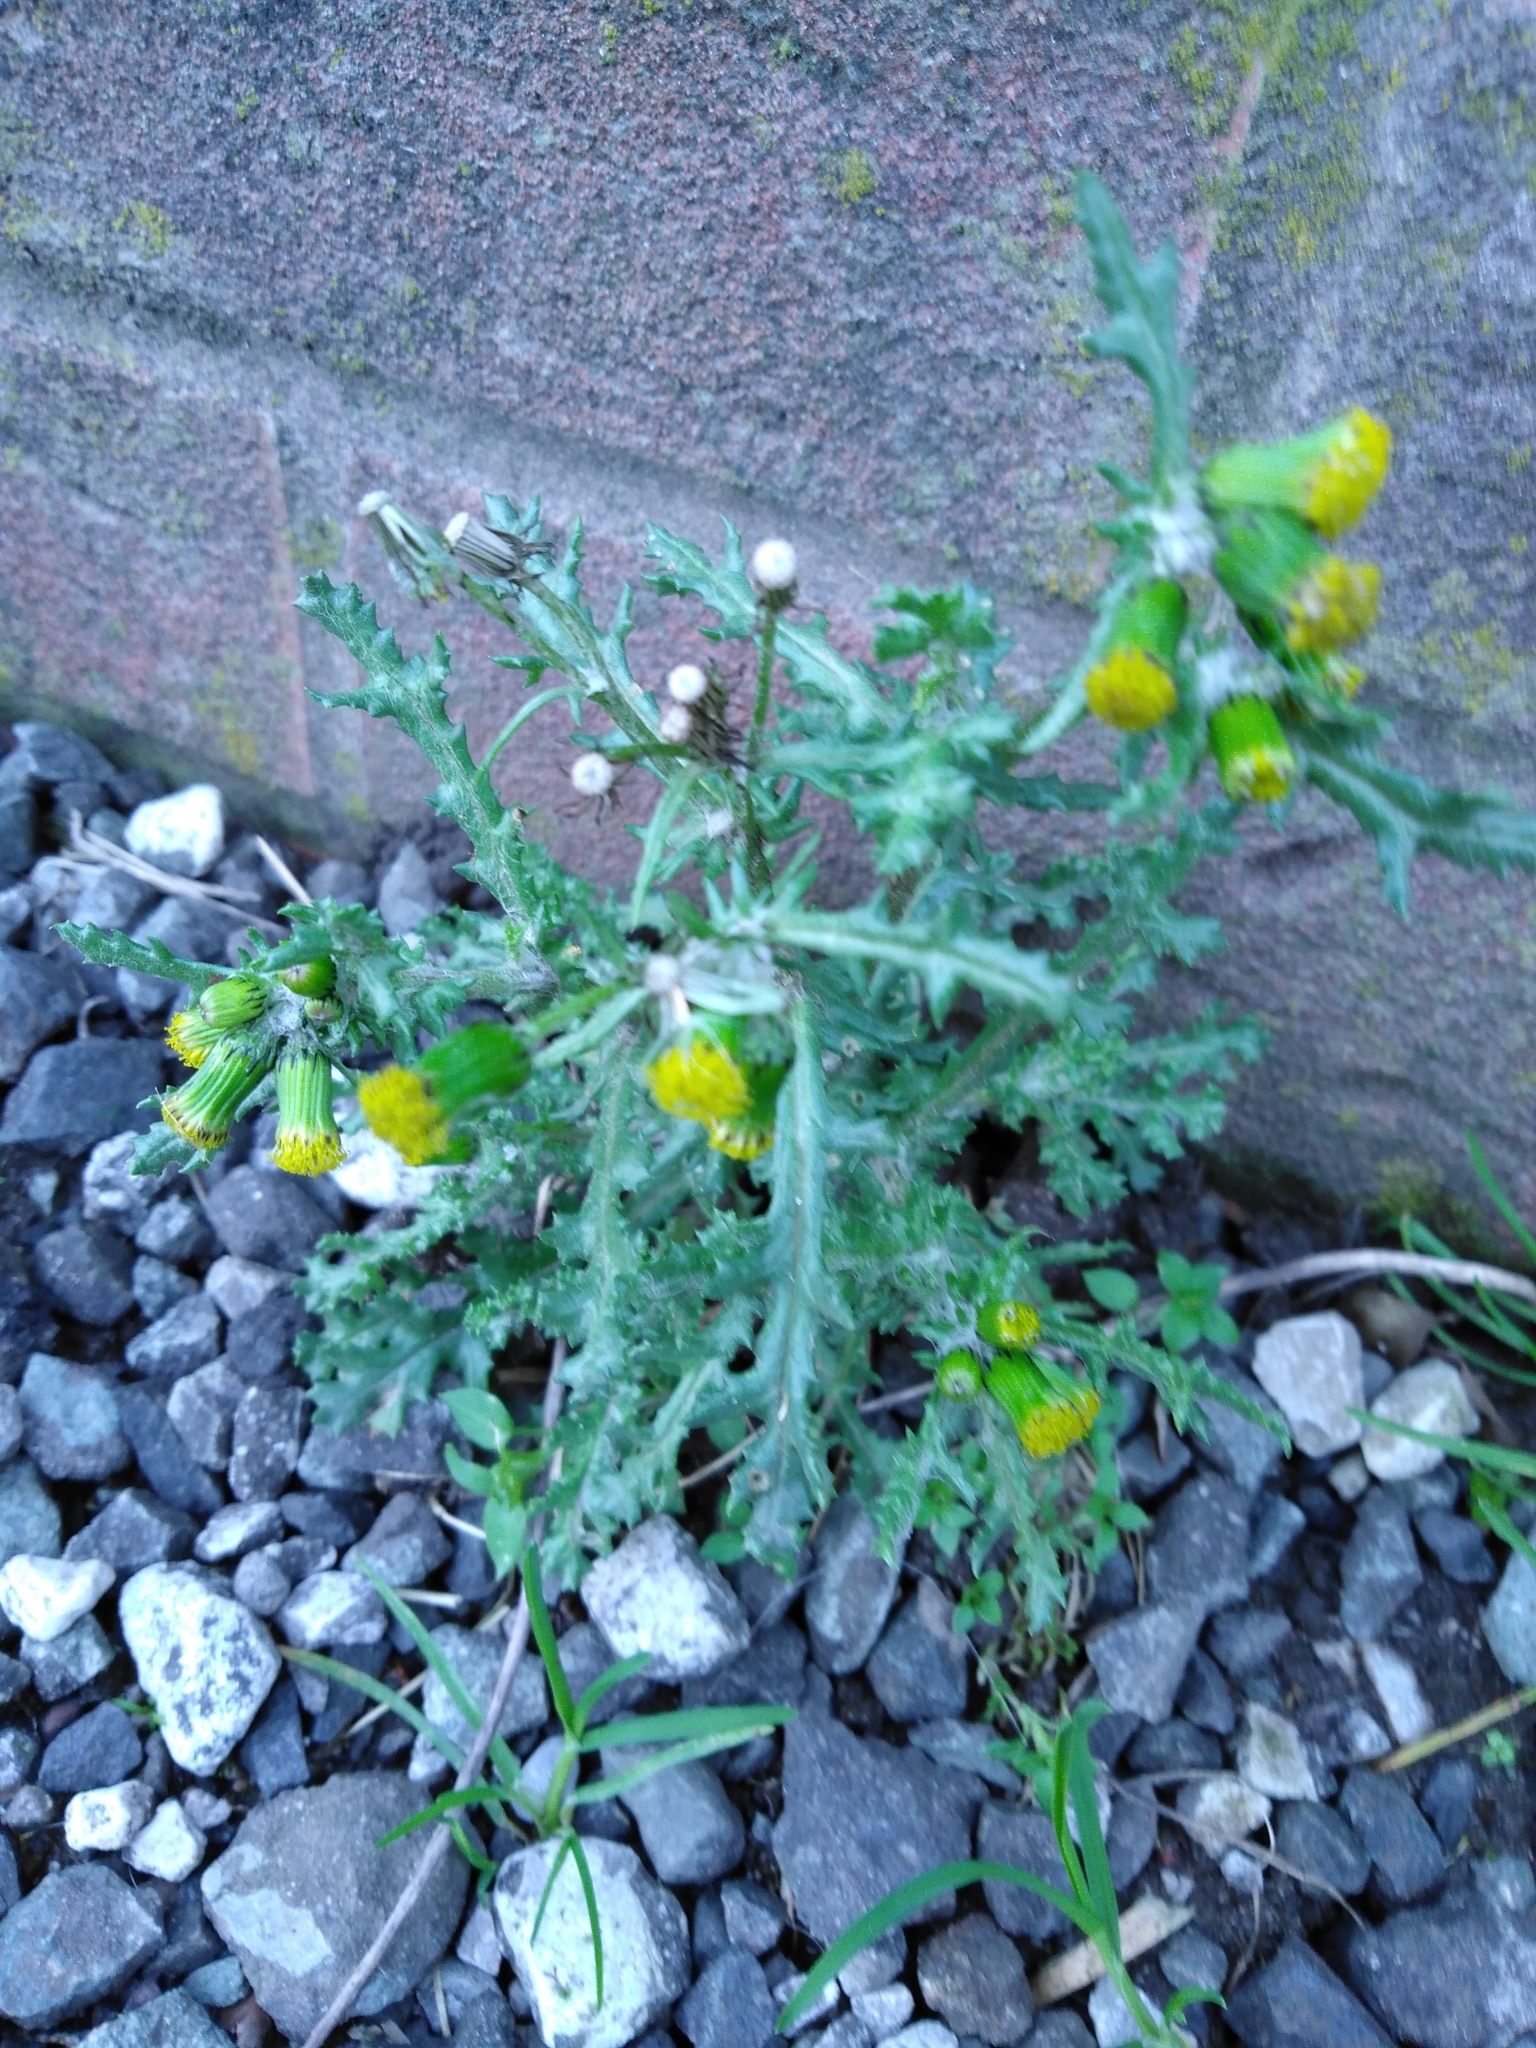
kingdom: Plantae
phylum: Tracheophyta
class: Magnoliopsida
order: Asterales
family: Asteraceae
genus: Senecio
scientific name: Senecio vulgaris
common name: Old-man-in-the-spring
